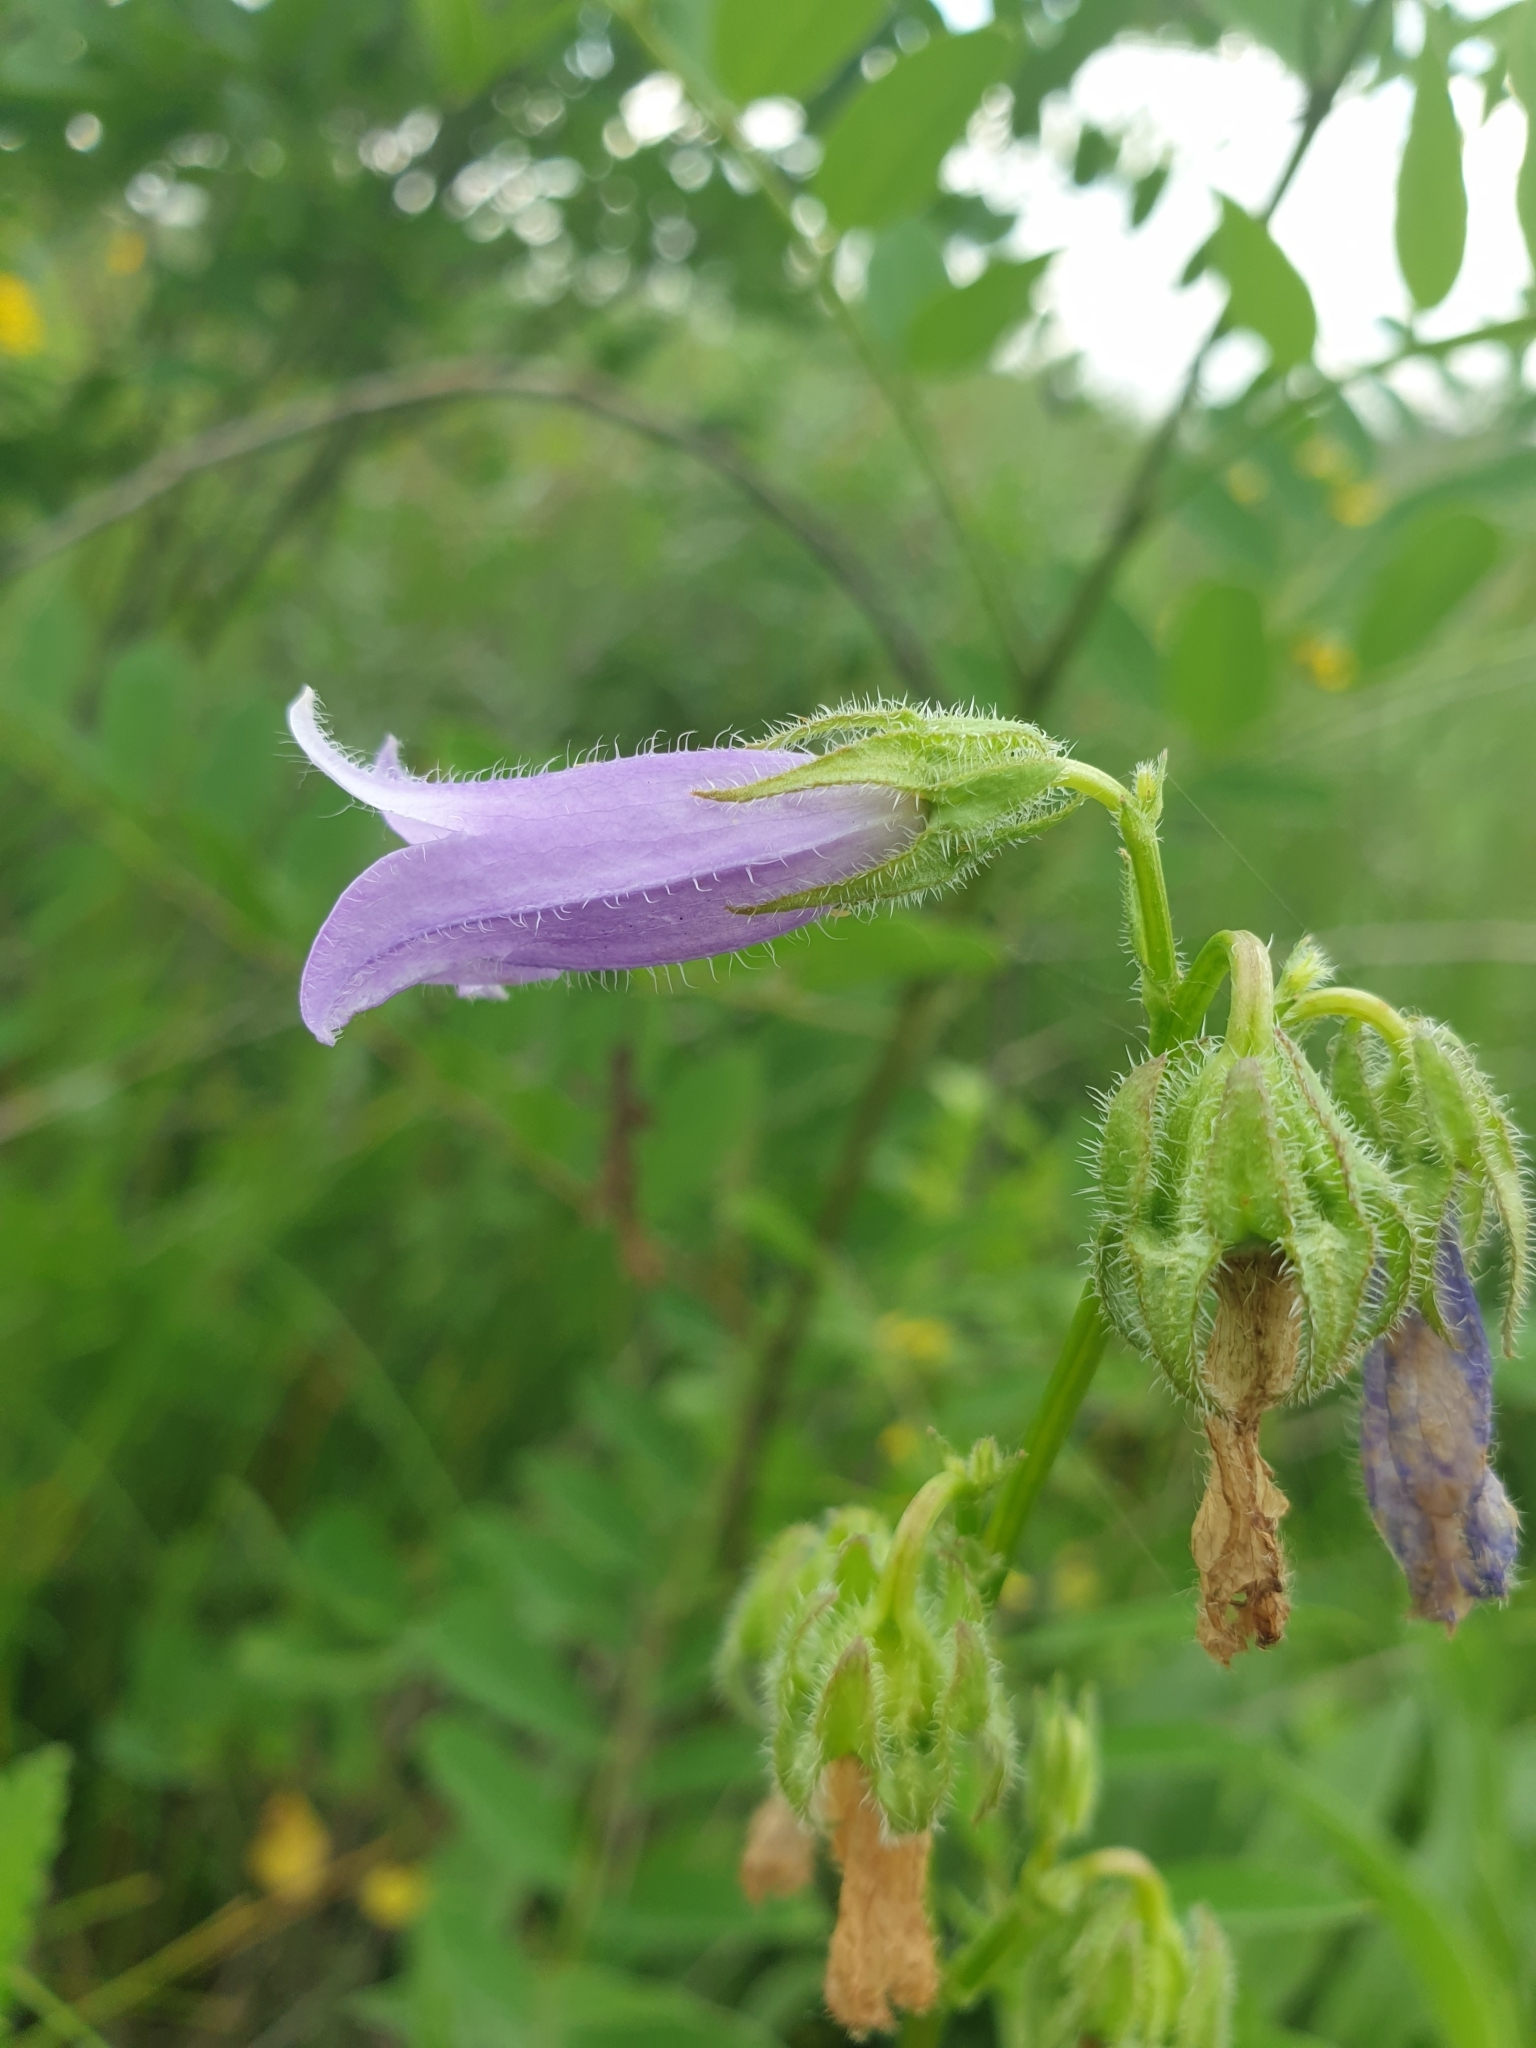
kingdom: Plantae
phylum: Tracheophyta
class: Magnoliopsida
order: Asterales
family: Campanulaceae
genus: Campanula
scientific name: Campanula sibirica
